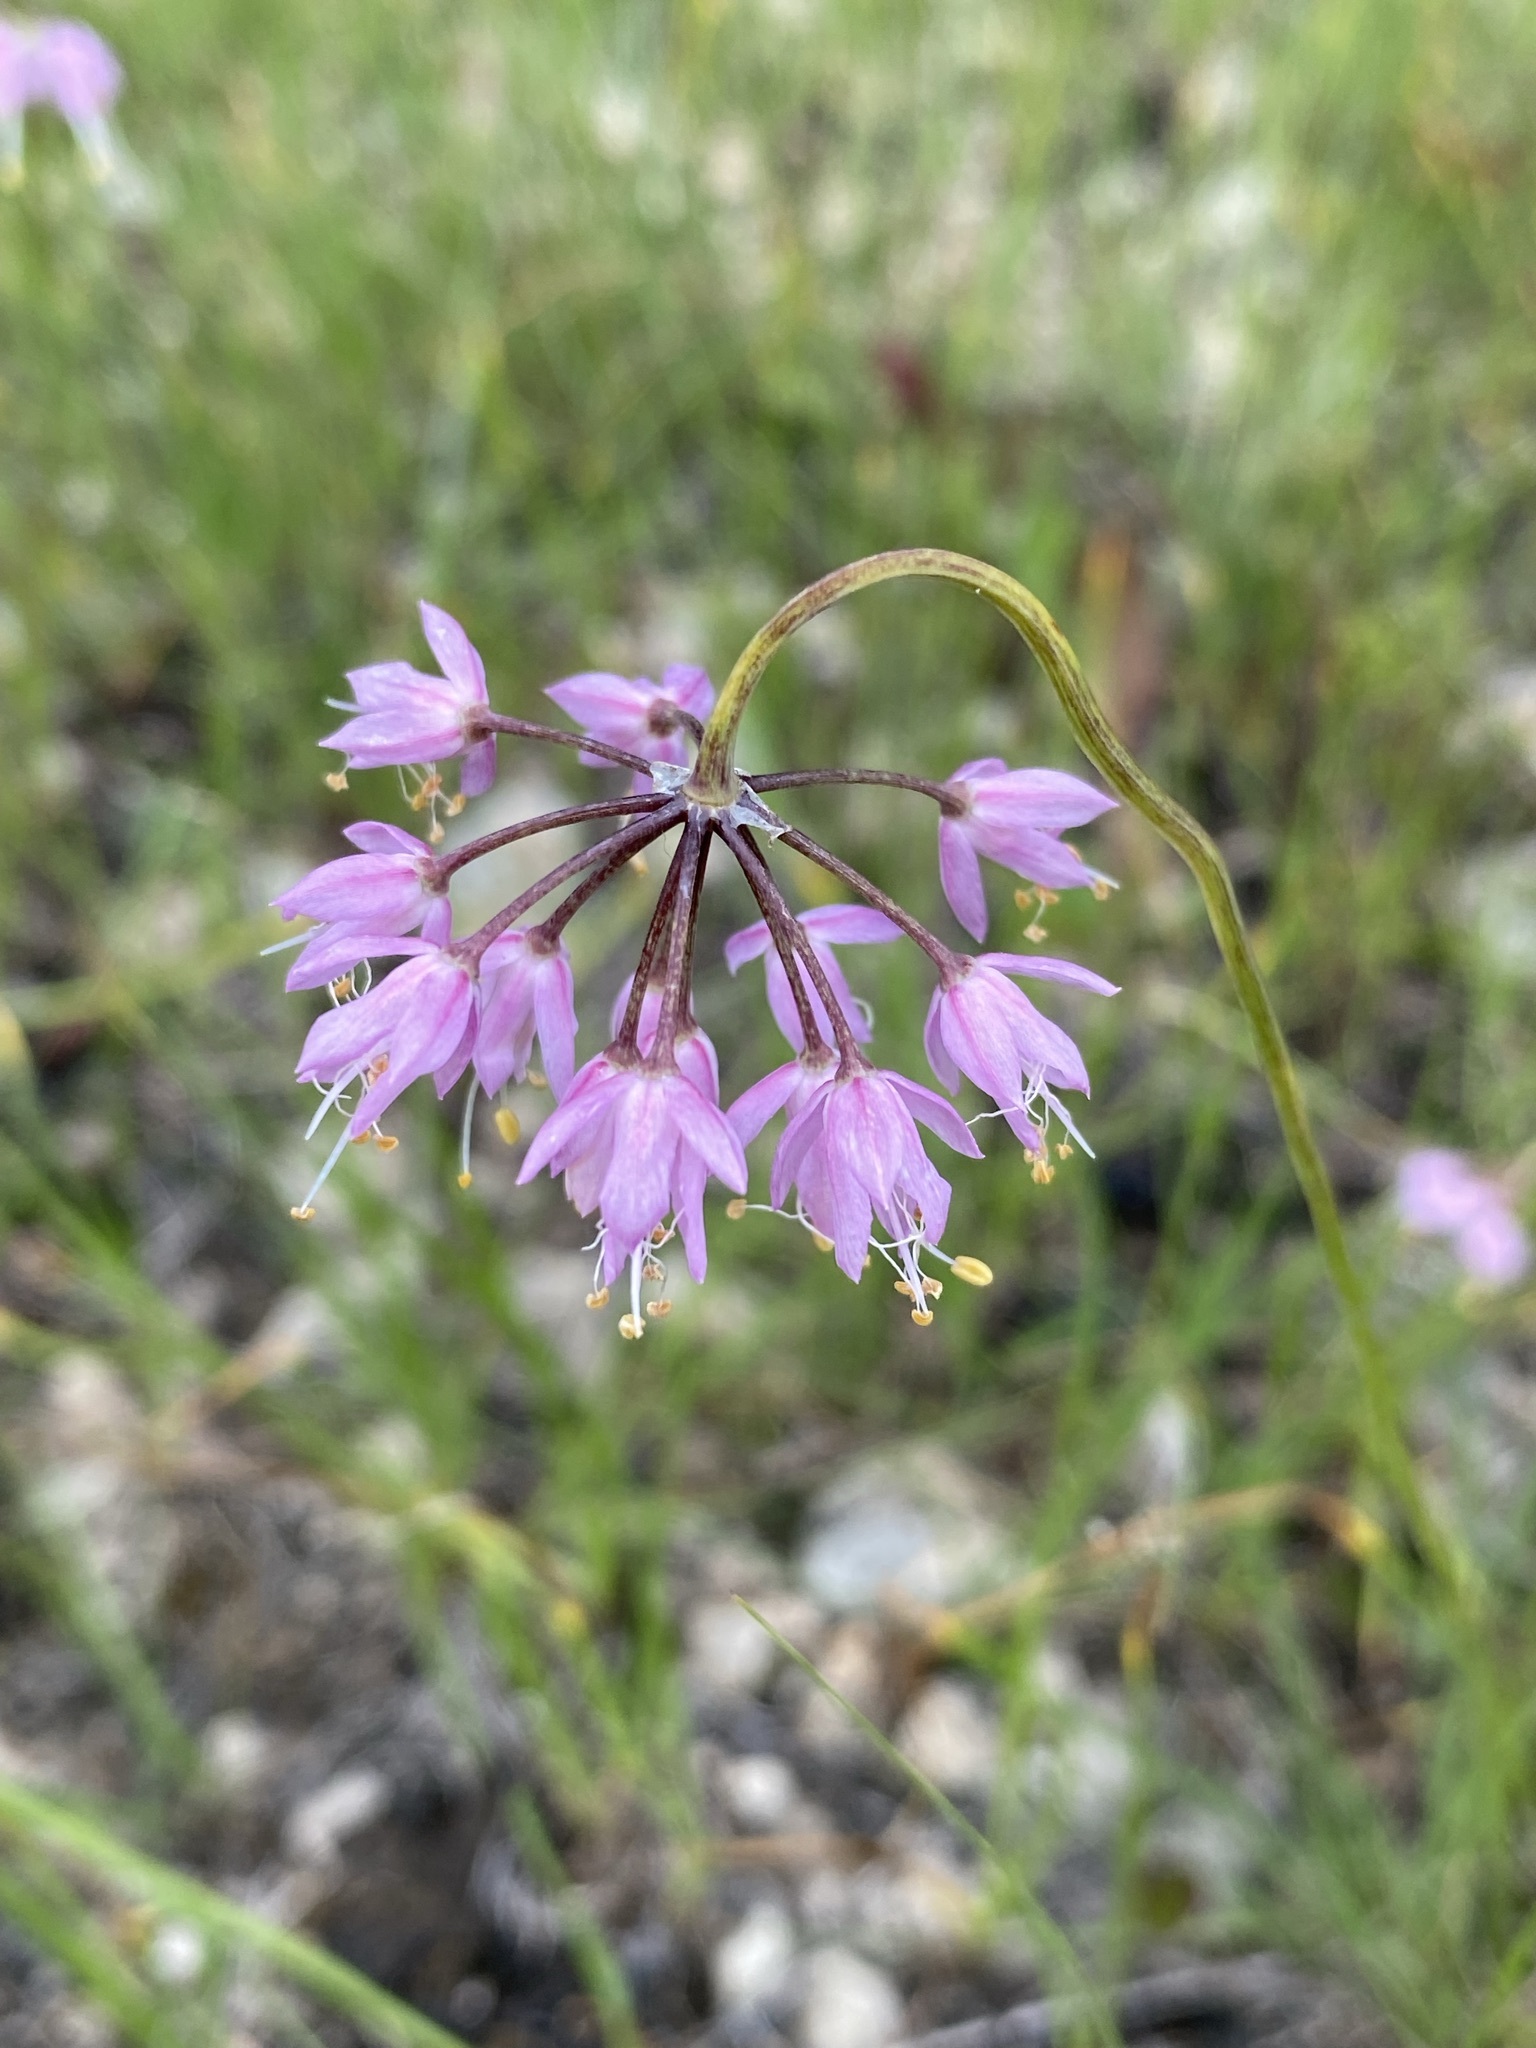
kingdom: Plantae
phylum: Tracheophyta
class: Liliopsida
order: Asparagales
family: Amaryllidaceae
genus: Allium
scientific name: Allium cernuum
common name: Nodding onion
